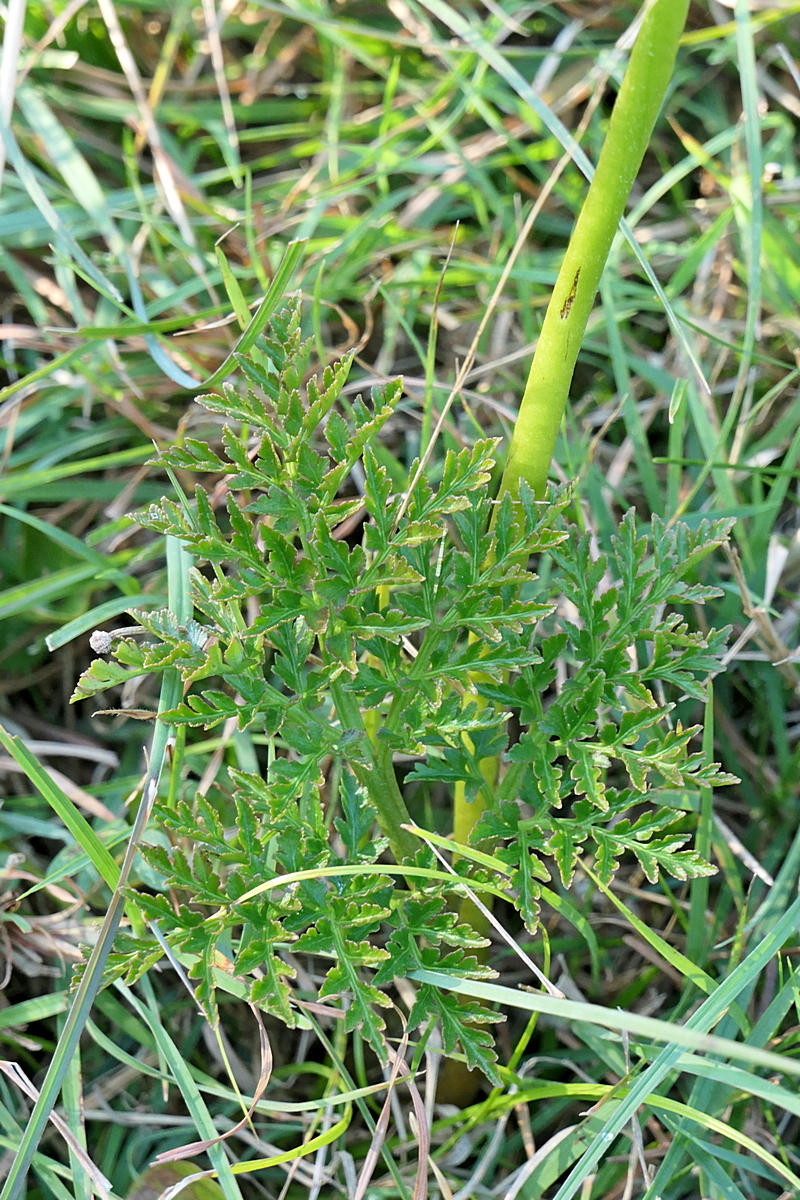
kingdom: Plantae
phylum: Tracheophyta
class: Polypodiopsida
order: Ophioglossales
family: Ophioglossaceae
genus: Sceptridium
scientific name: Sceptridium australe
